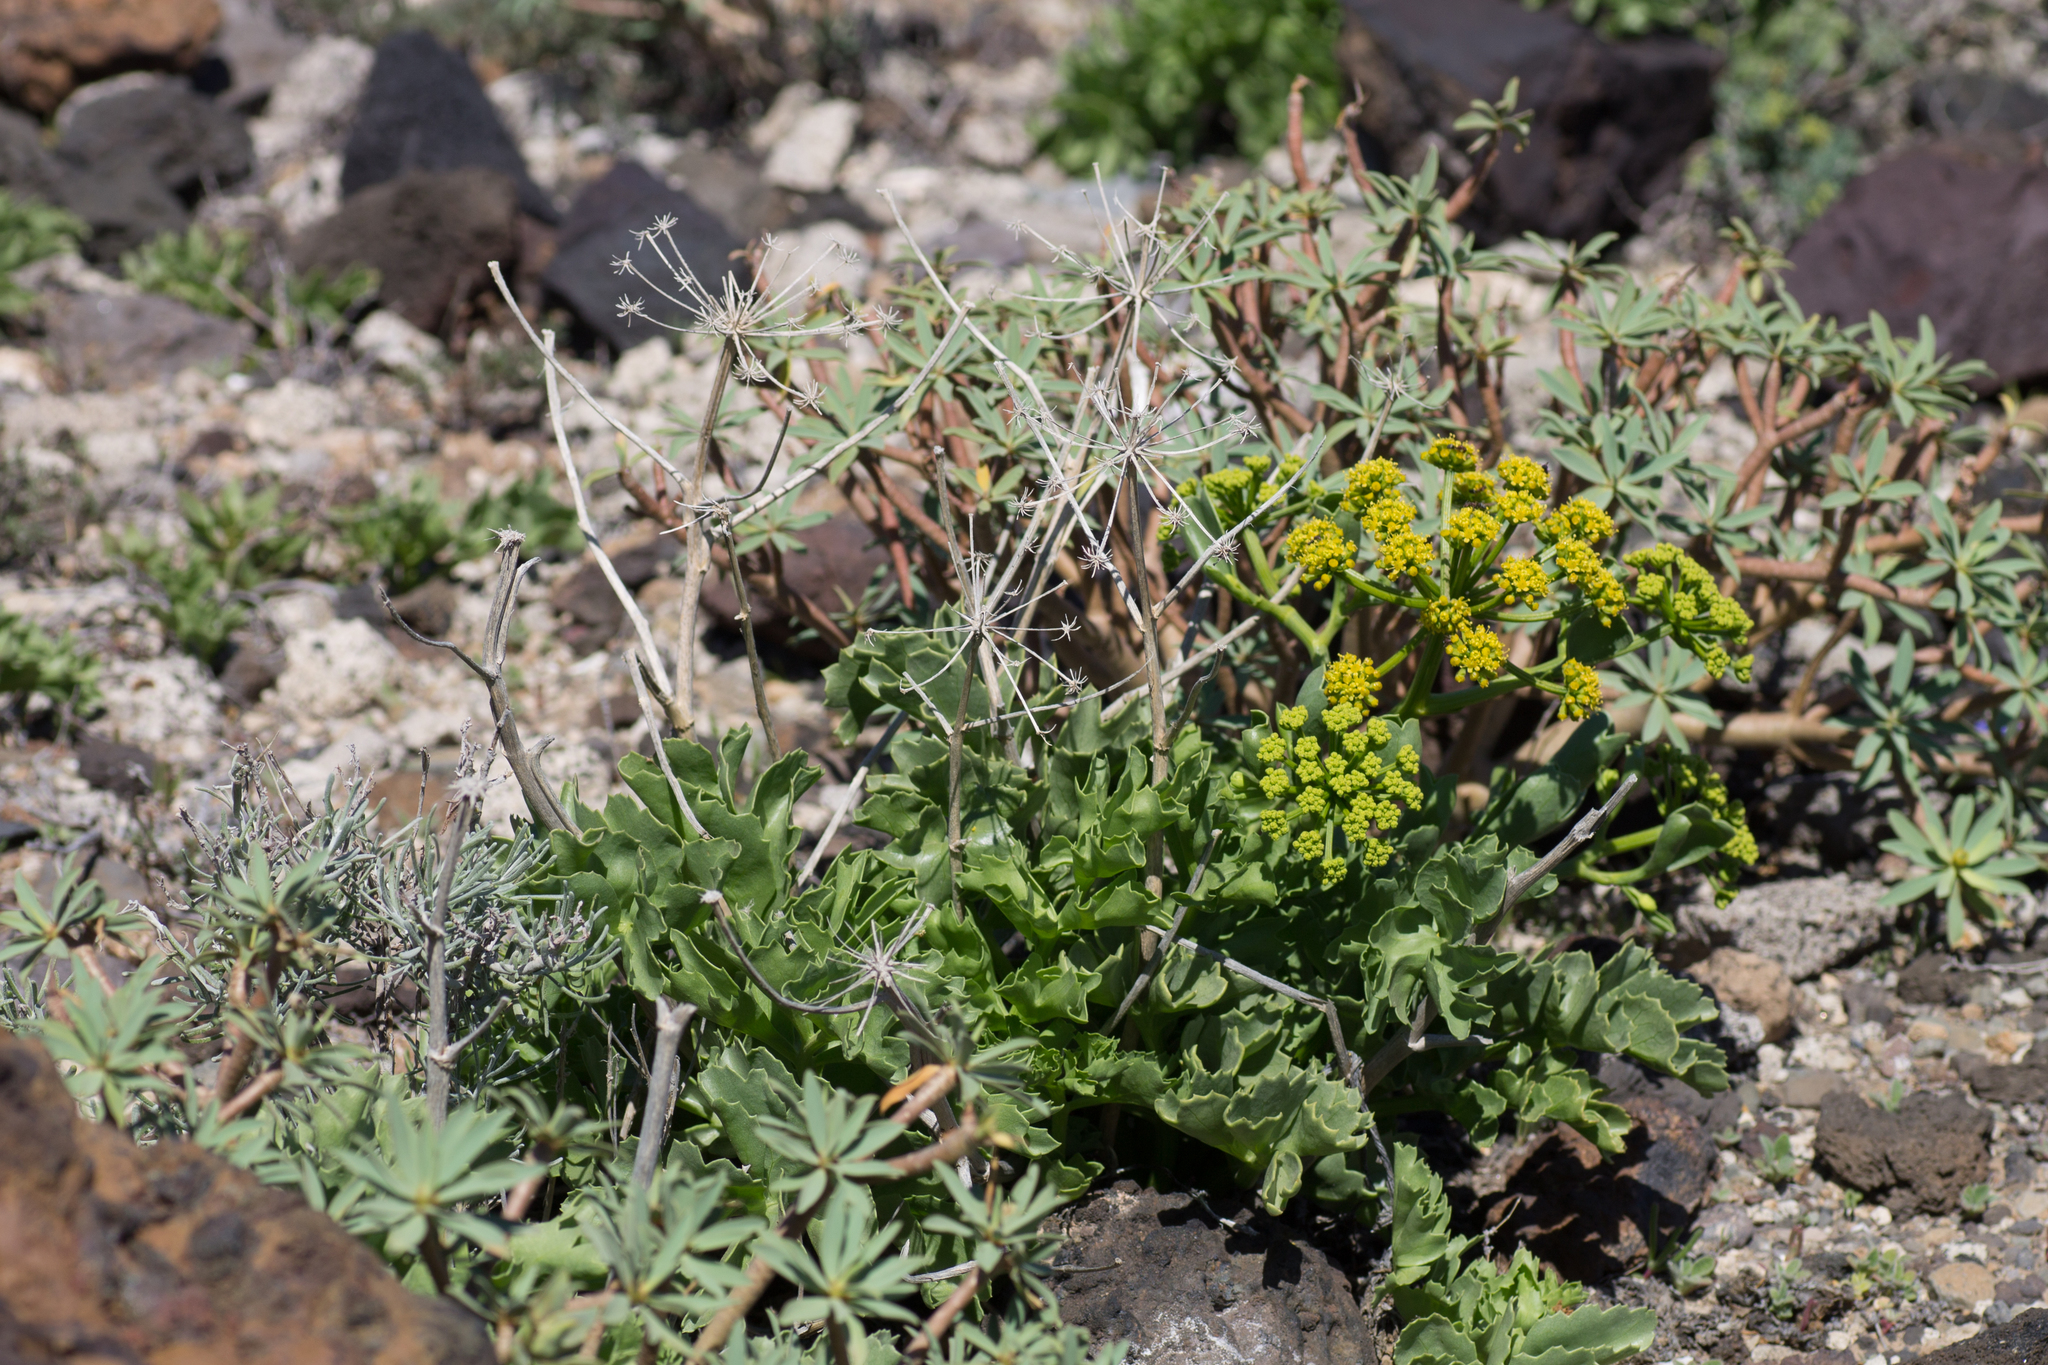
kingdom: Plantae
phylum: Tracheophyta
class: Magnoliopsida
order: Apiales
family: Apiaceae
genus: Astydamia
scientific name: Astydamia latifolia
